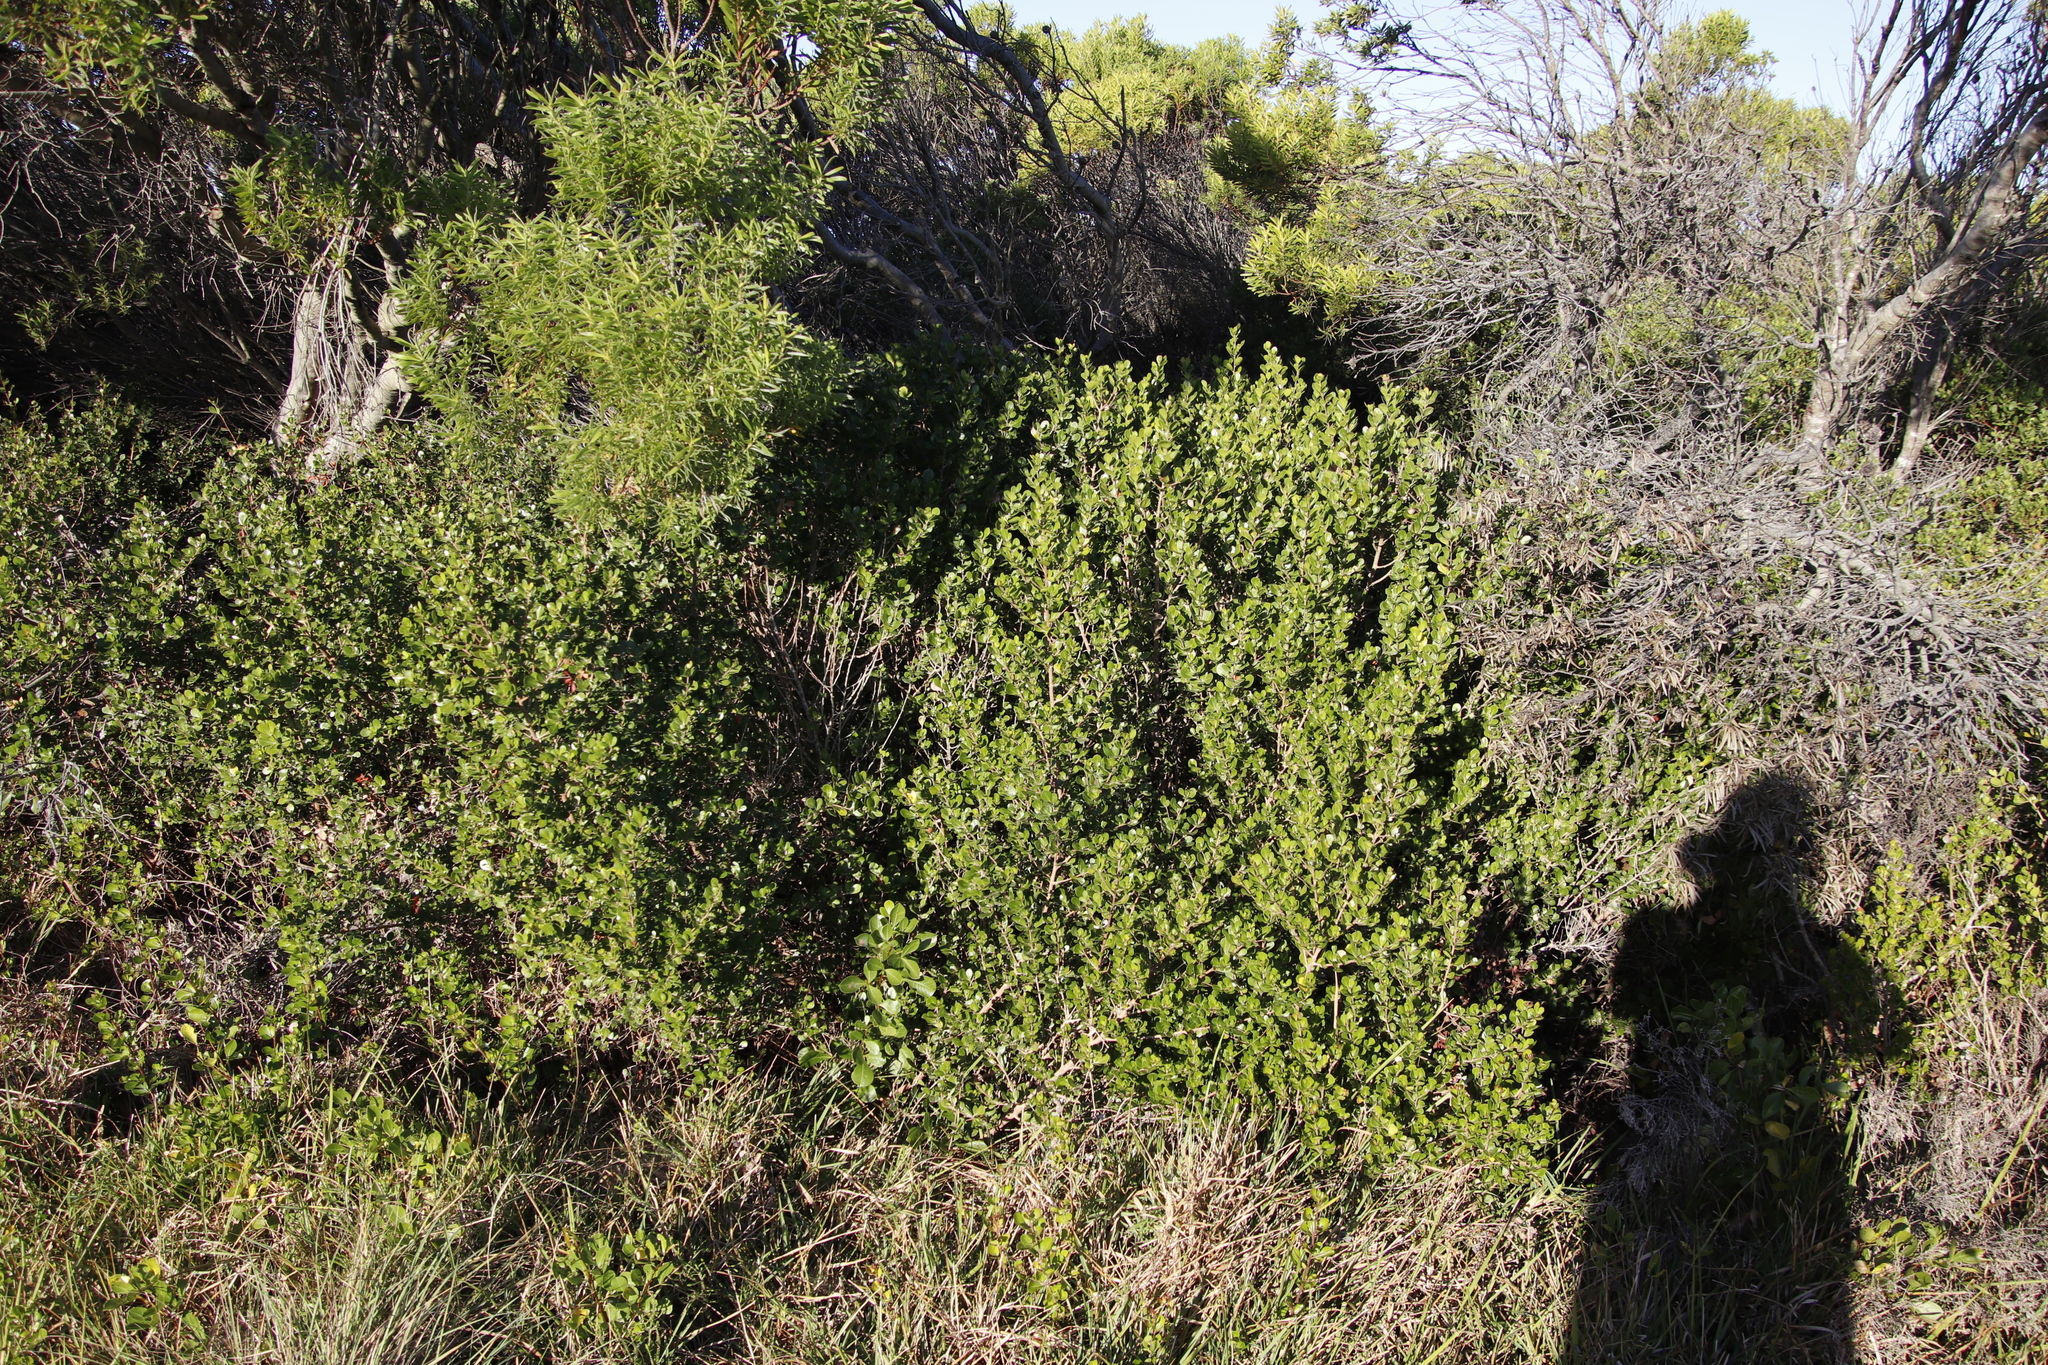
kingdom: Plantae
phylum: Tracheophyta
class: Magnoliopsida
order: Sapindales
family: Anacardiaceae
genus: Searsia
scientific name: Searsia lucida
